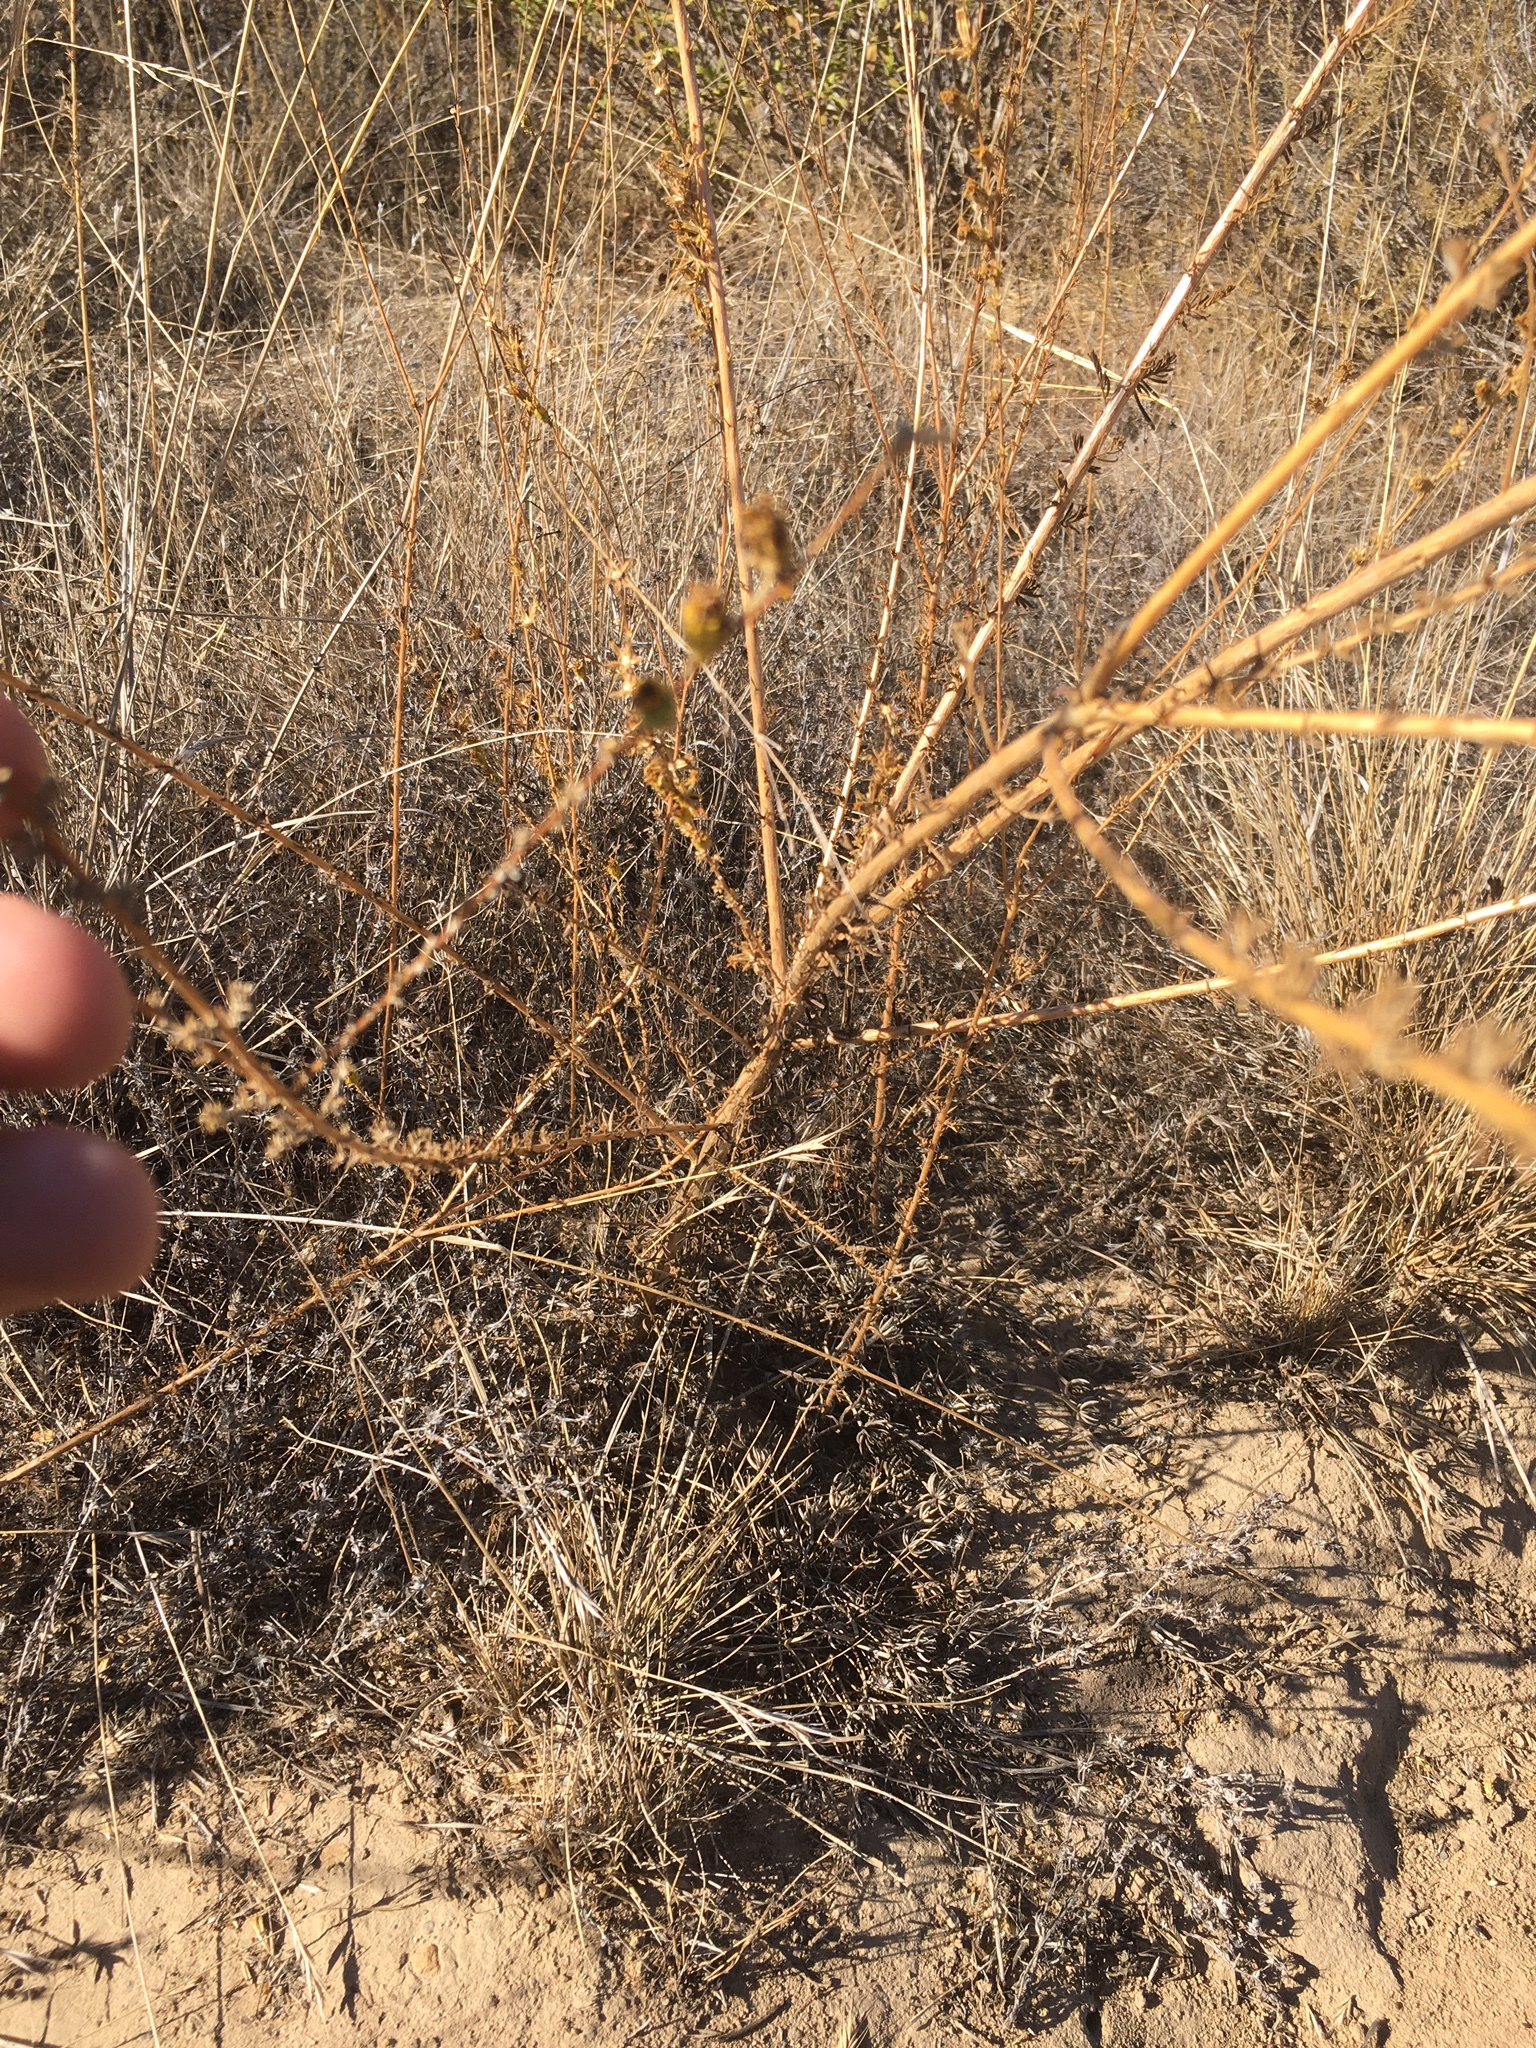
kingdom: Plantae
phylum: Tracheophyta
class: Magnoliopsida
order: Asterales
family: Asteraceae
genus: Holocarpha
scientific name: Holocarpha virgata
